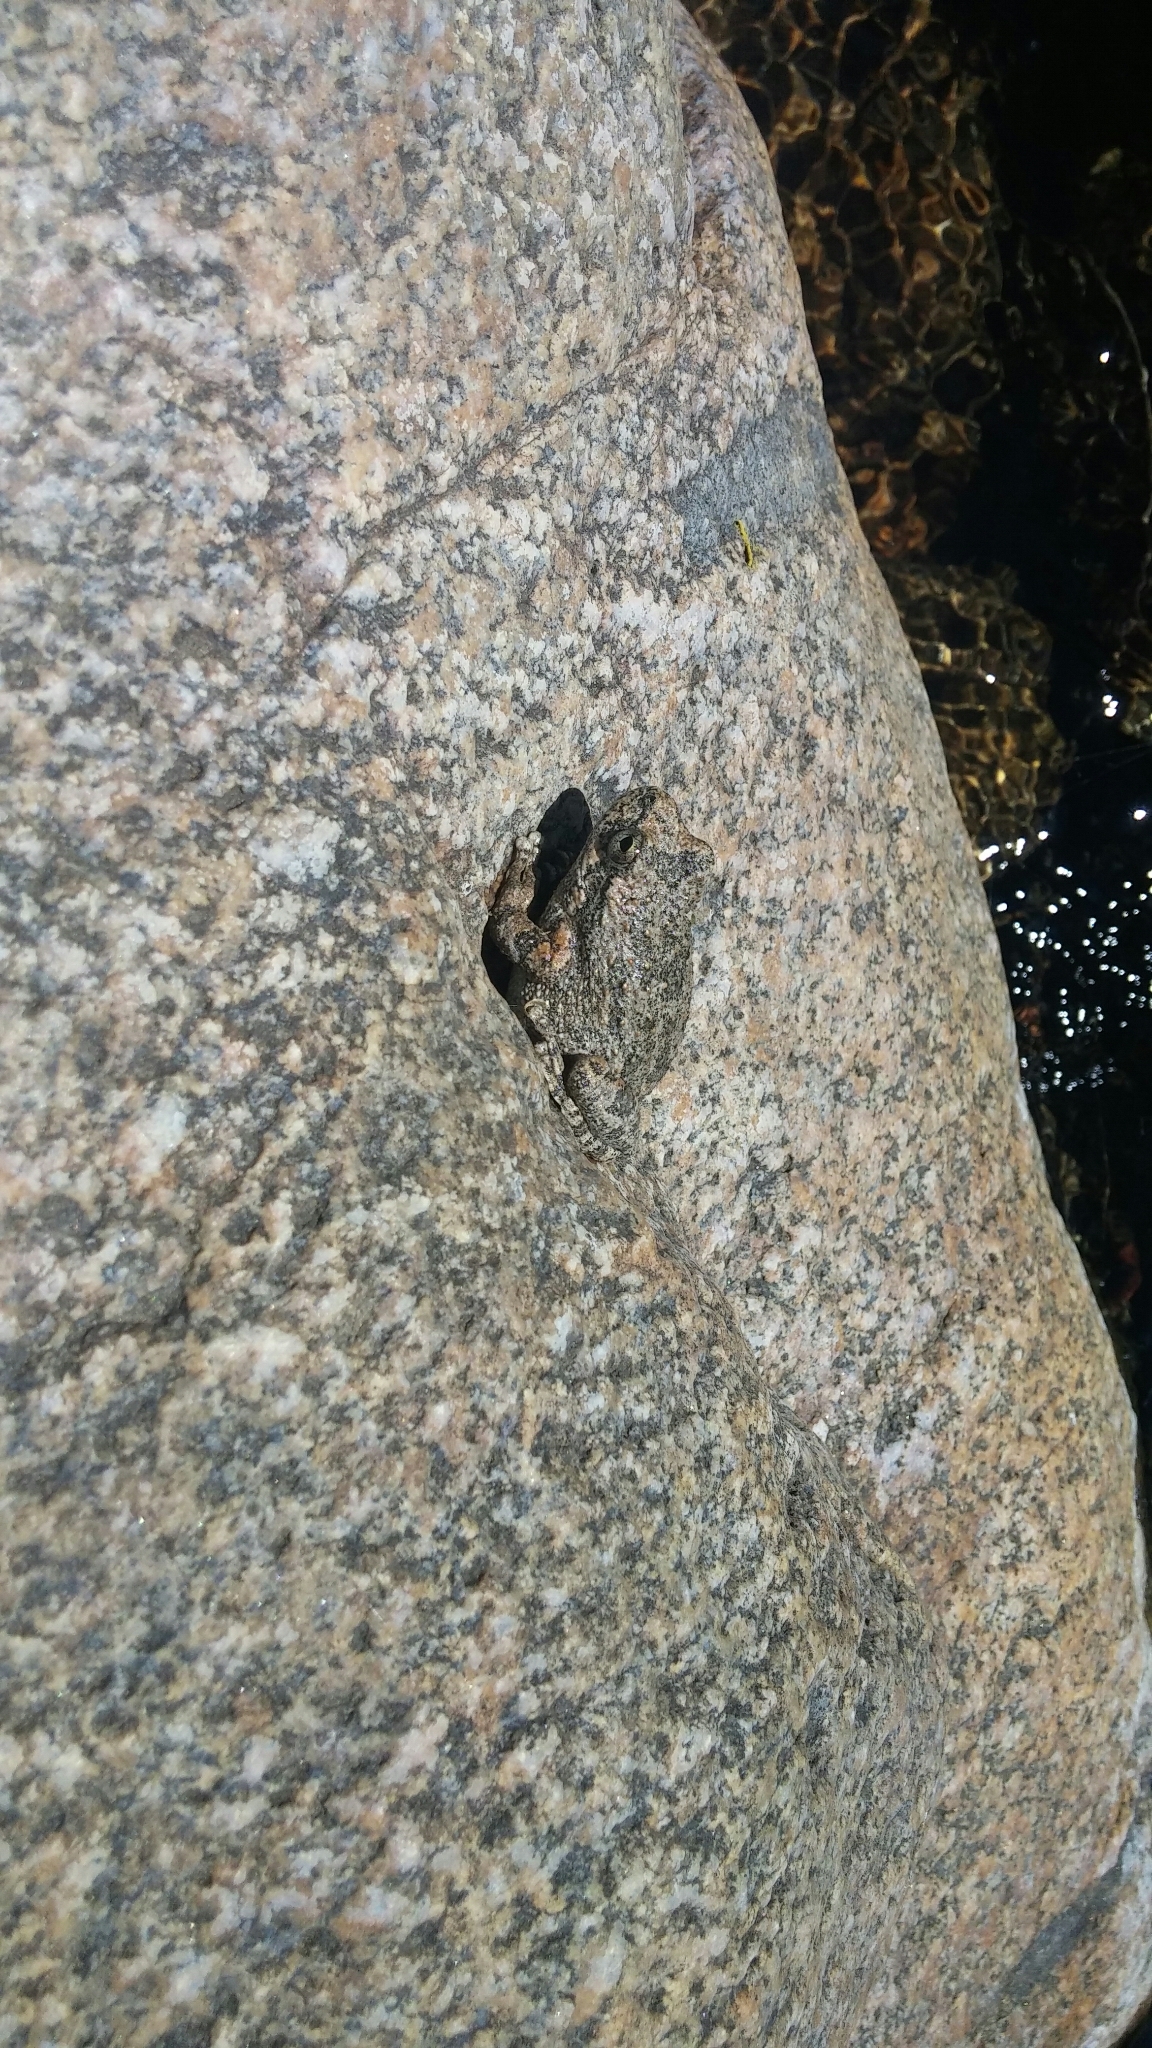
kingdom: Animalia
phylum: Chordata
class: Amphibia
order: Anura
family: Hylidae
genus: Pseudacris
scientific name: Pseudacris cadaverina
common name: California chorus frog
